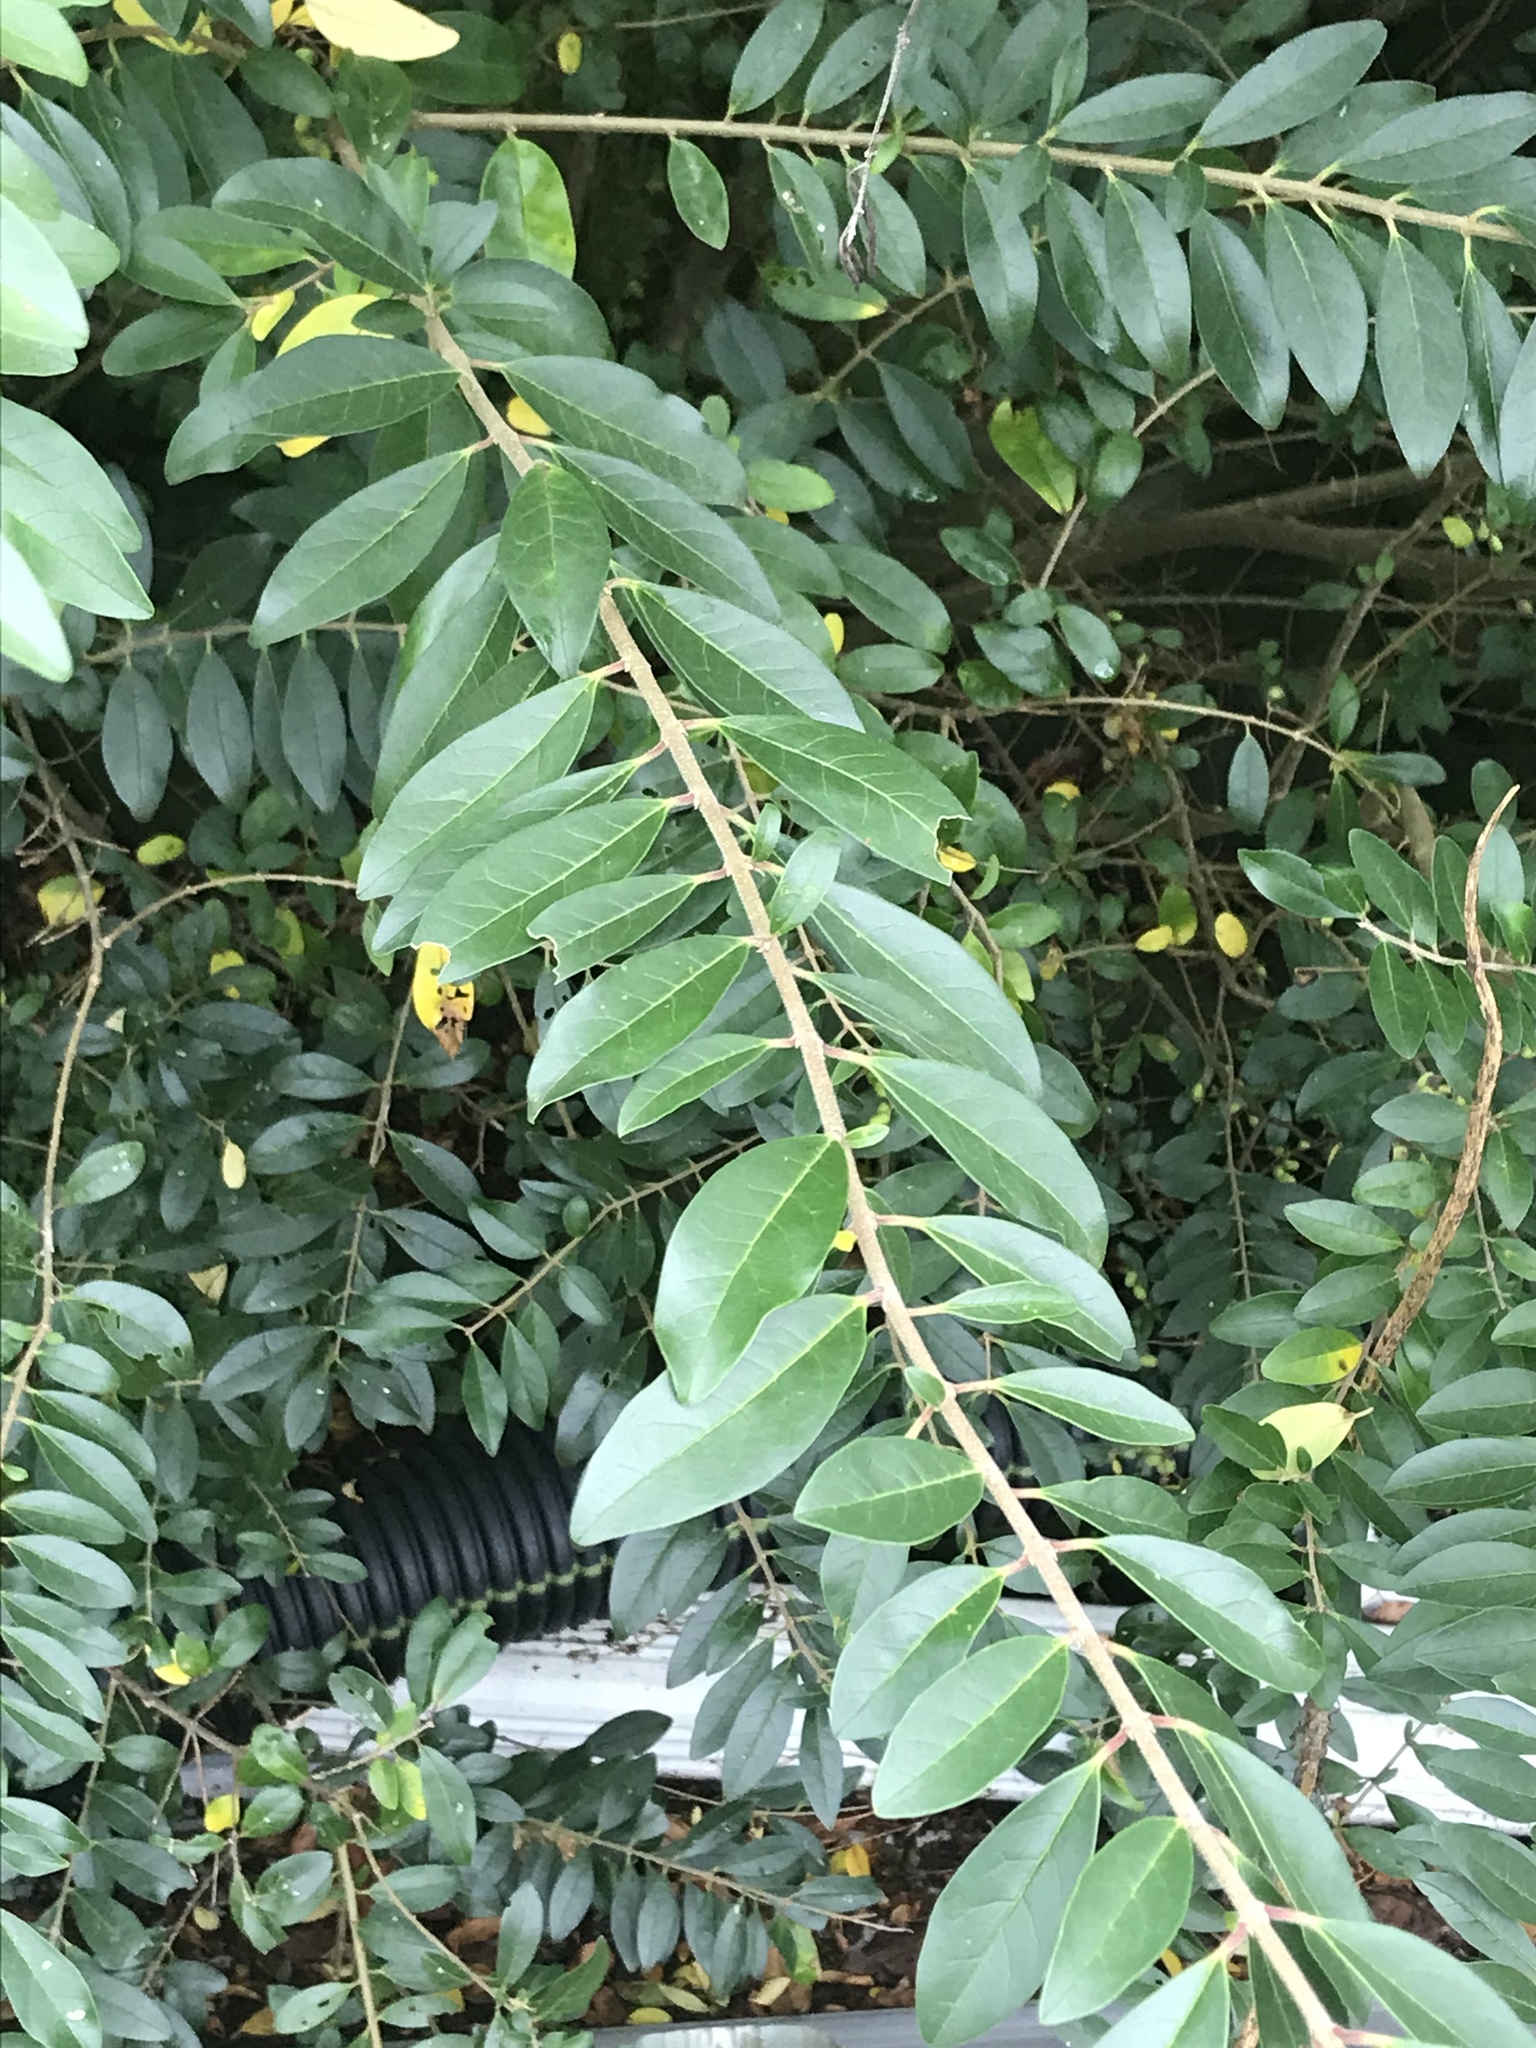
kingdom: Plantae
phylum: Tracheophyta
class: Magnoliopsida
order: Lamiales
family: Oleaceae
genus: Ligustrum
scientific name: Ligustrum sinense
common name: Chinese privet
